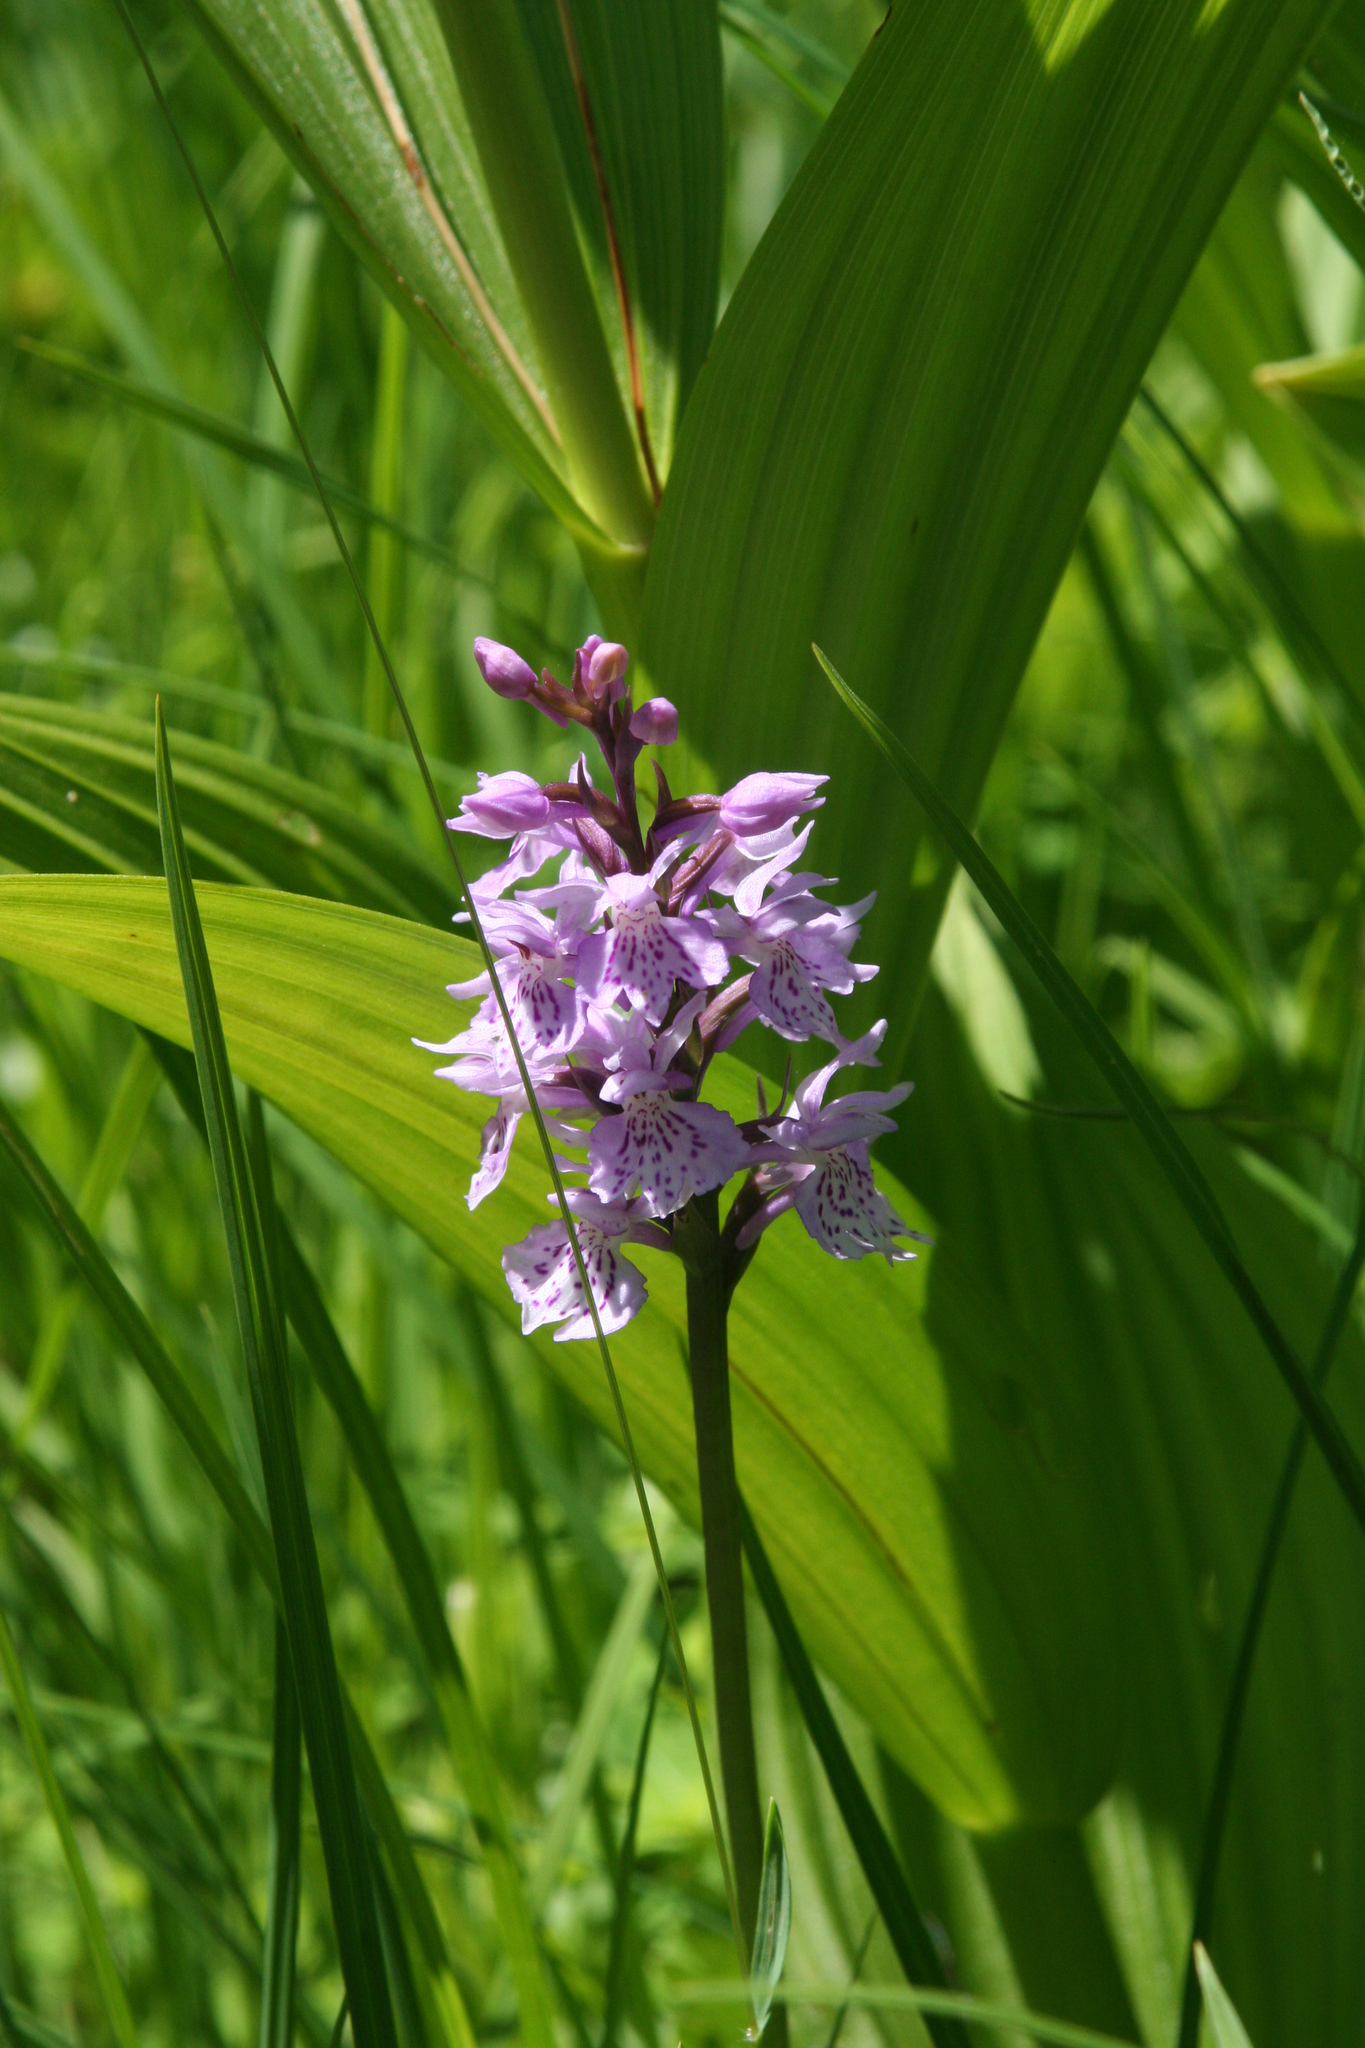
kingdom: Plantae
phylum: Tracheophyta
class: Liliopsida
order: Asparagales
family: Orchidaceae
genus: Dactylorhiza
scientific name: Dactylorhiza maculata
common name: Heath spotted-orchid
